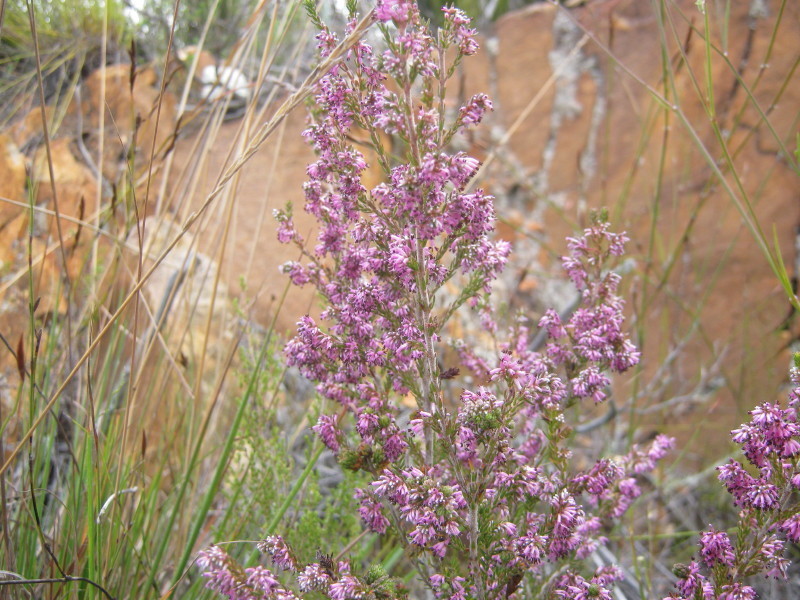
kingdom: Plantae
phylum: Tracheophyta
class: Magnoliopsida
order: Ericales
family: Ericaceae
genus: Erica
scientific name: Erica uberiflora
